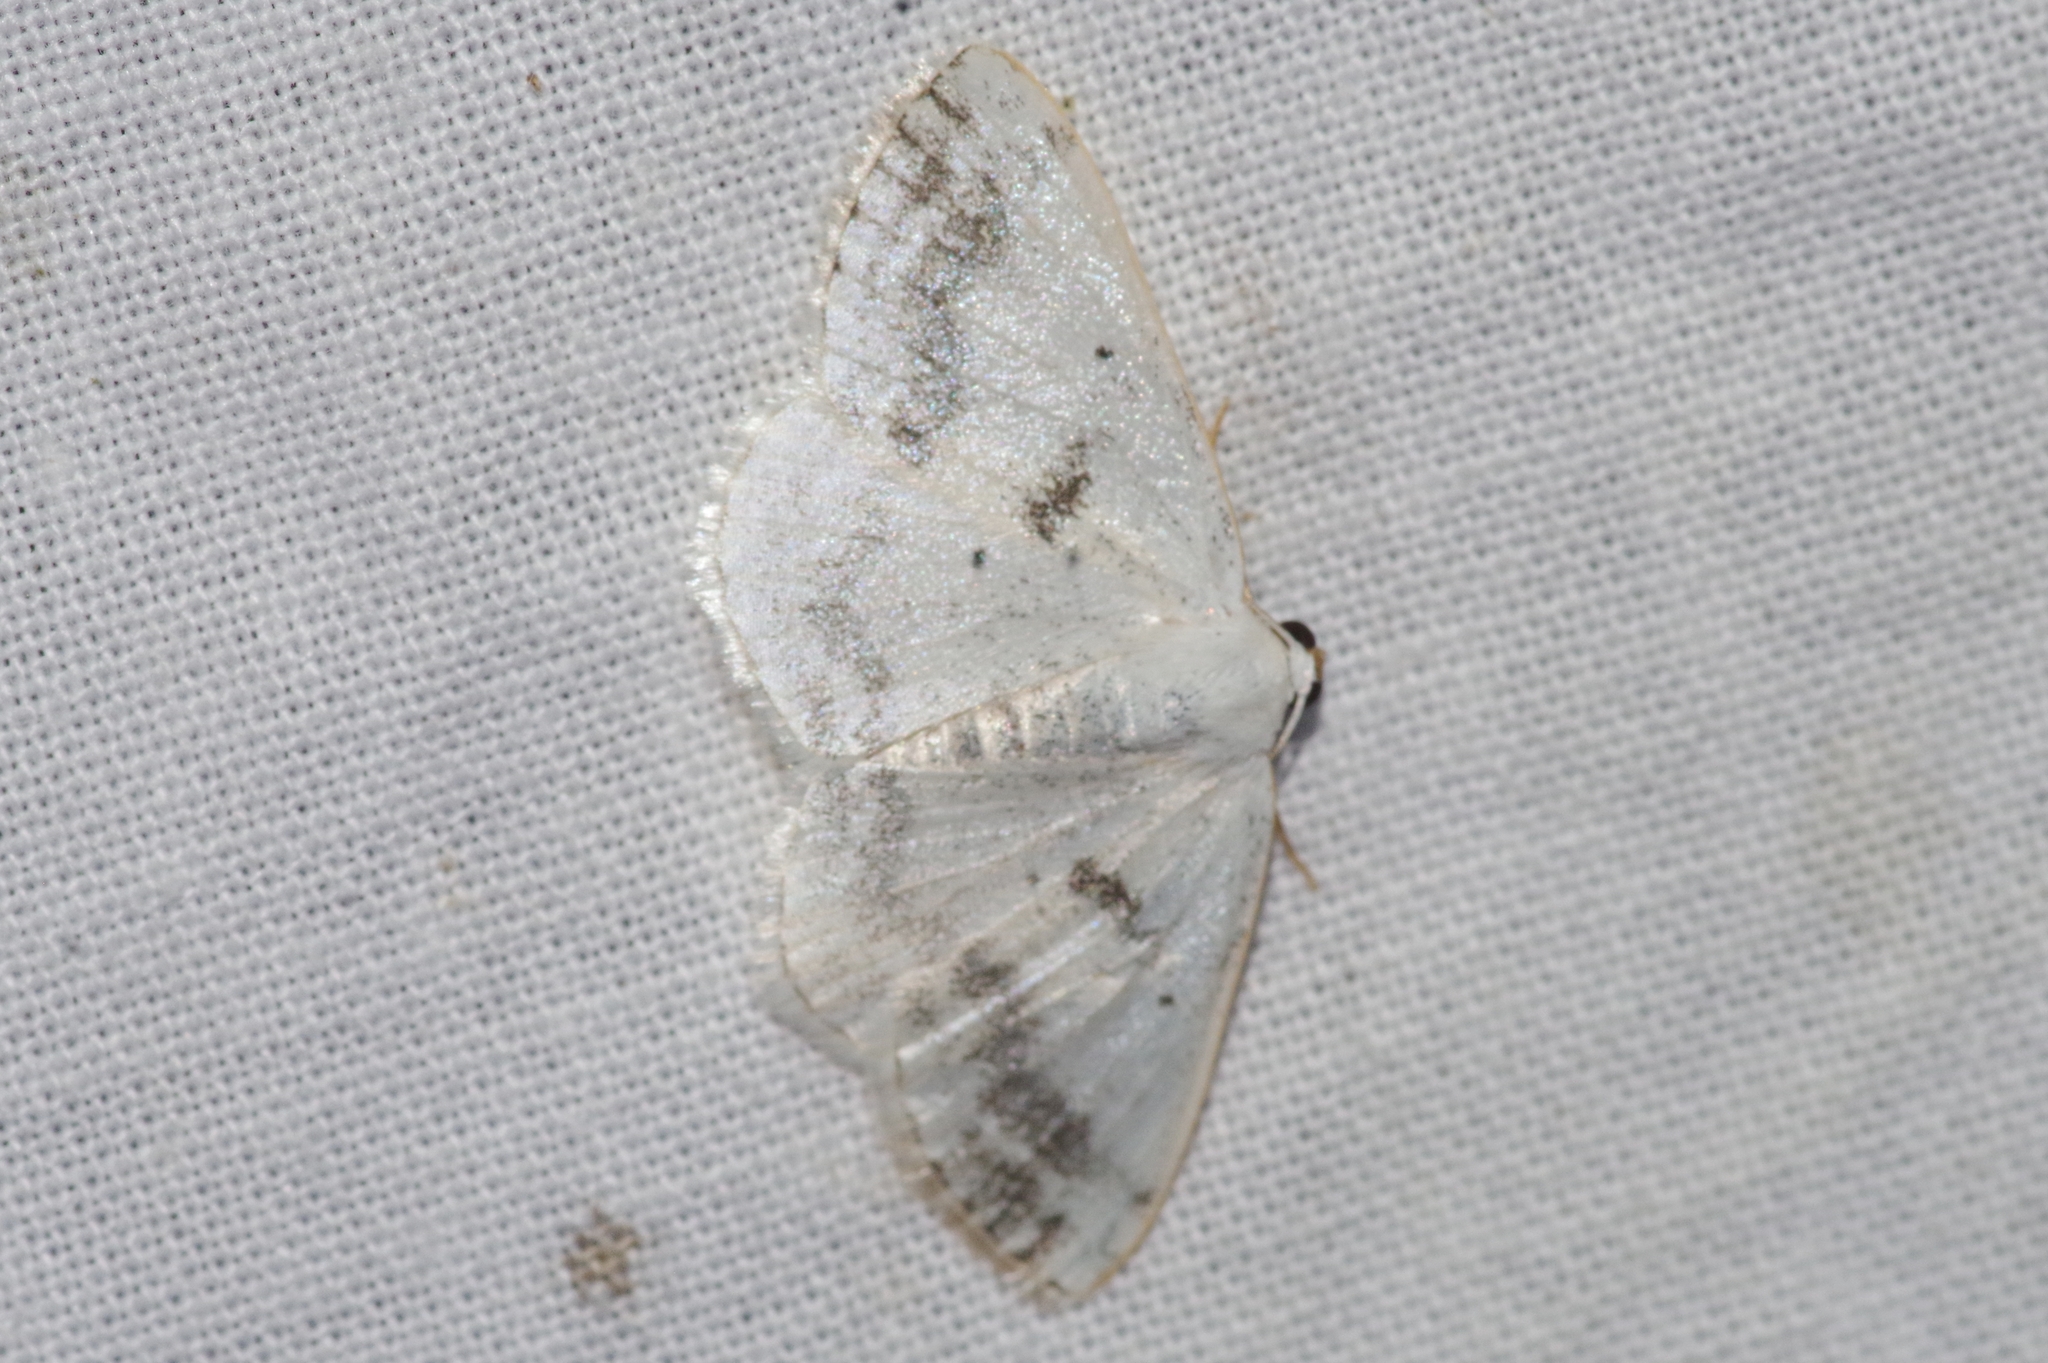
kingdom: Animalia
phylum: Arthropoda
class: Insecta
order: Lepidoptera
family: Geometridae
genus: Lomographa
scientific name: Lomographa temerata
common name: Clouded silver
